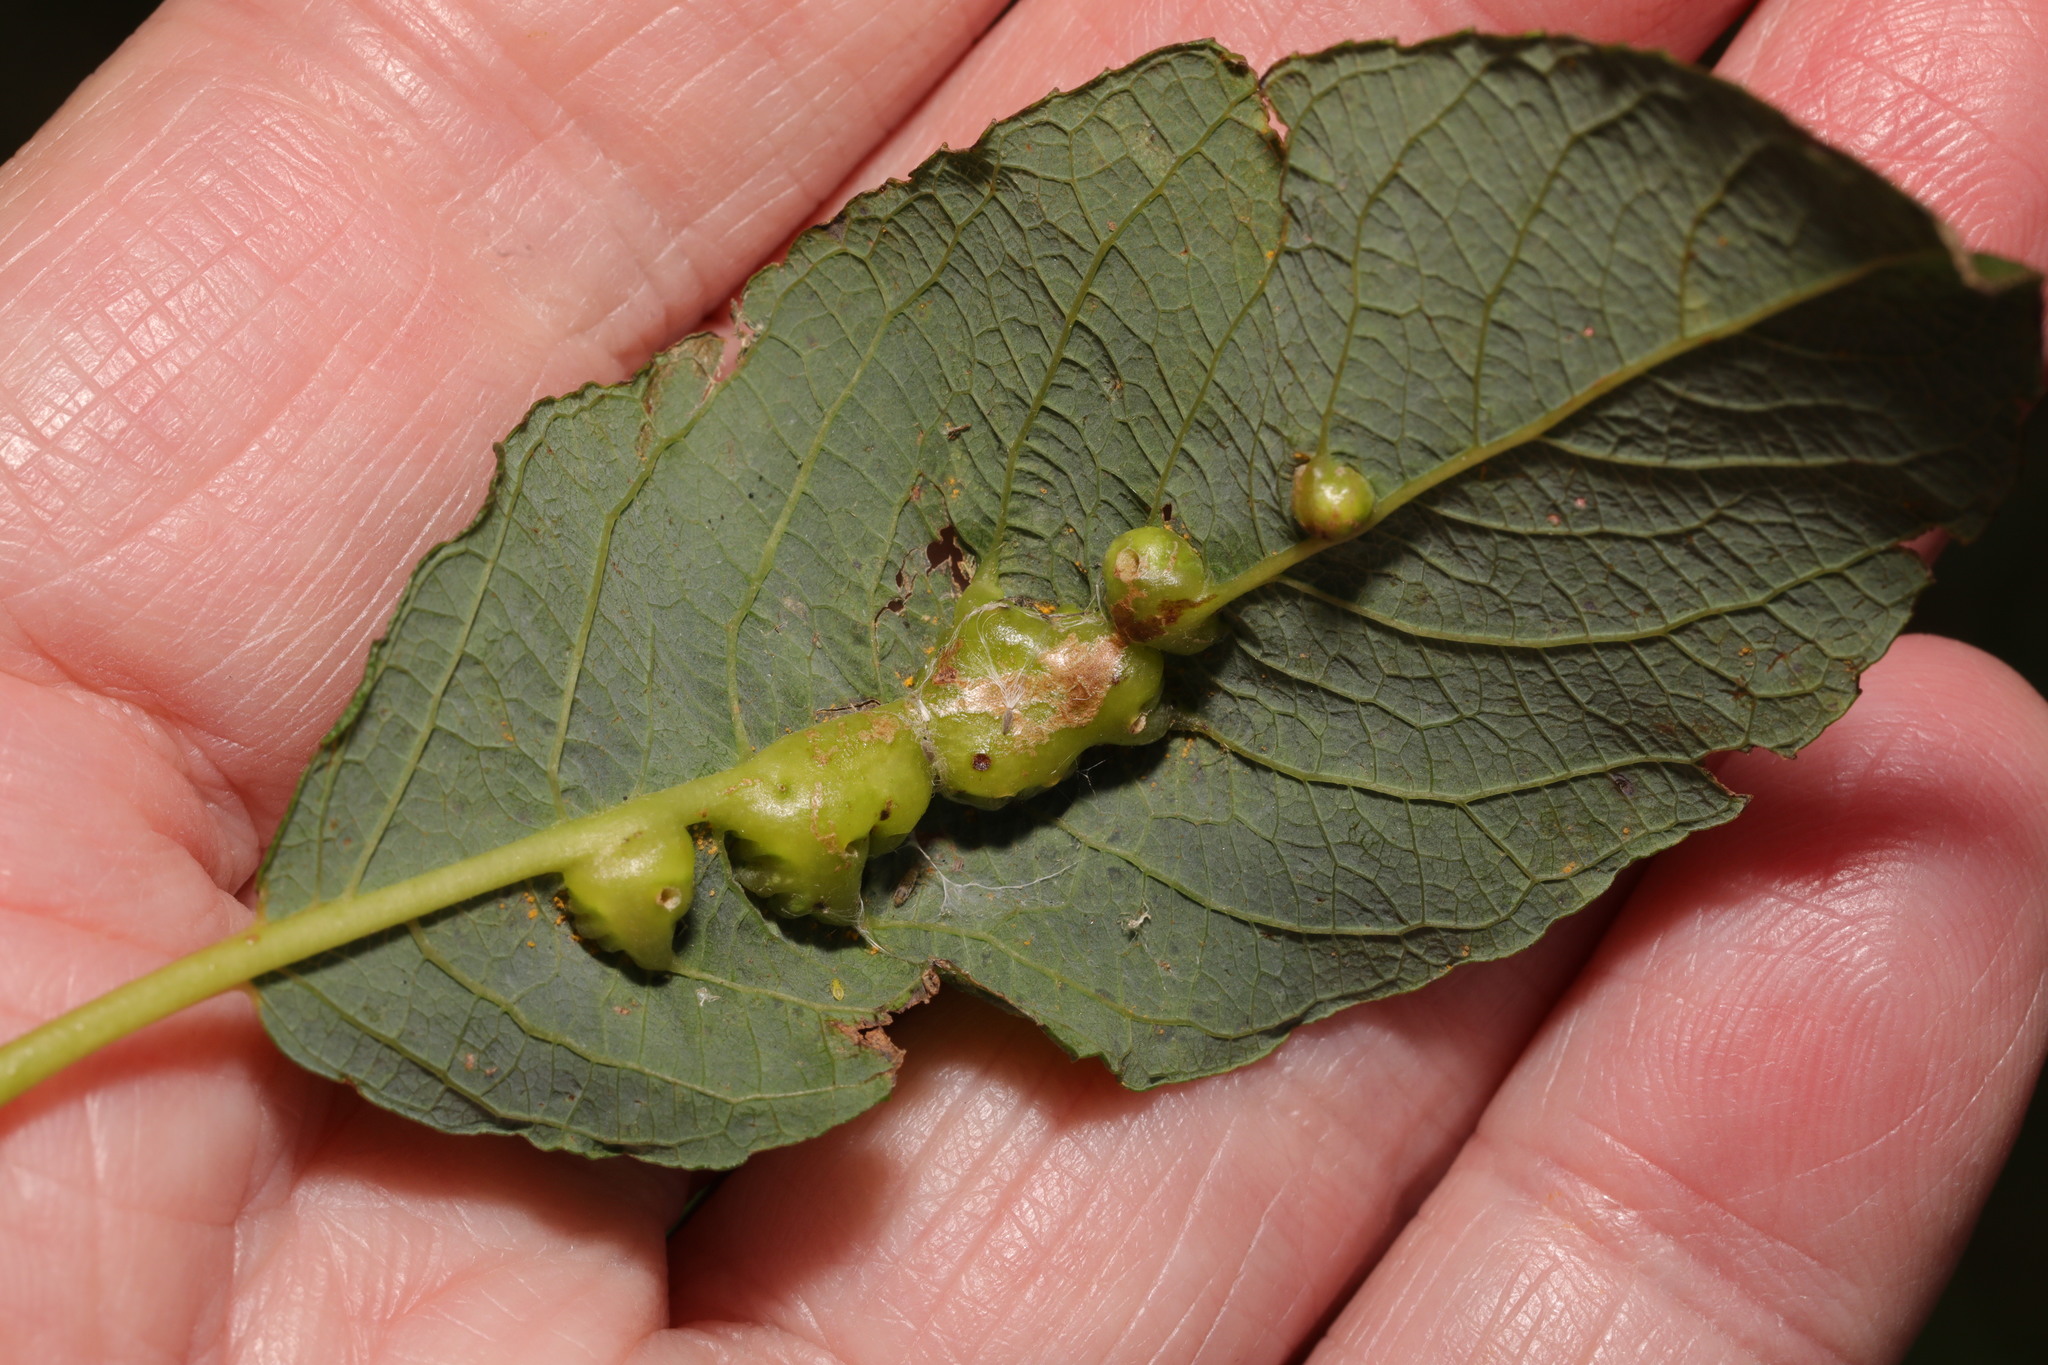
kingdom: Animalia
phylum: Arthropoda
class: Insecta
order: Diptera
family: Cecidomyiidae
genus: Iteomyia
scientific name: Iteomyia major
